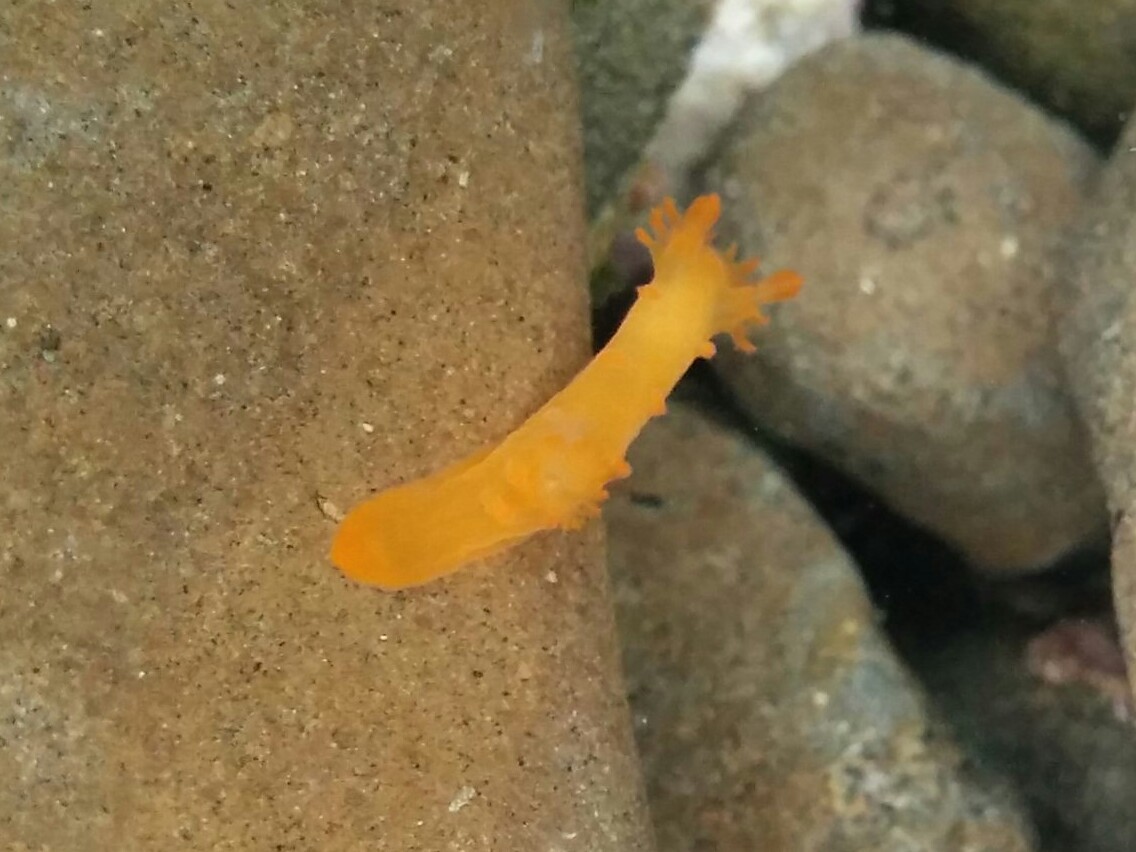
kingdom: Animalia
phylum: Mollusca
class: Gastropoda
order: Nudibranchia
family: Polyceridae
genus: Triopha
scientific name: Triopha maculata
